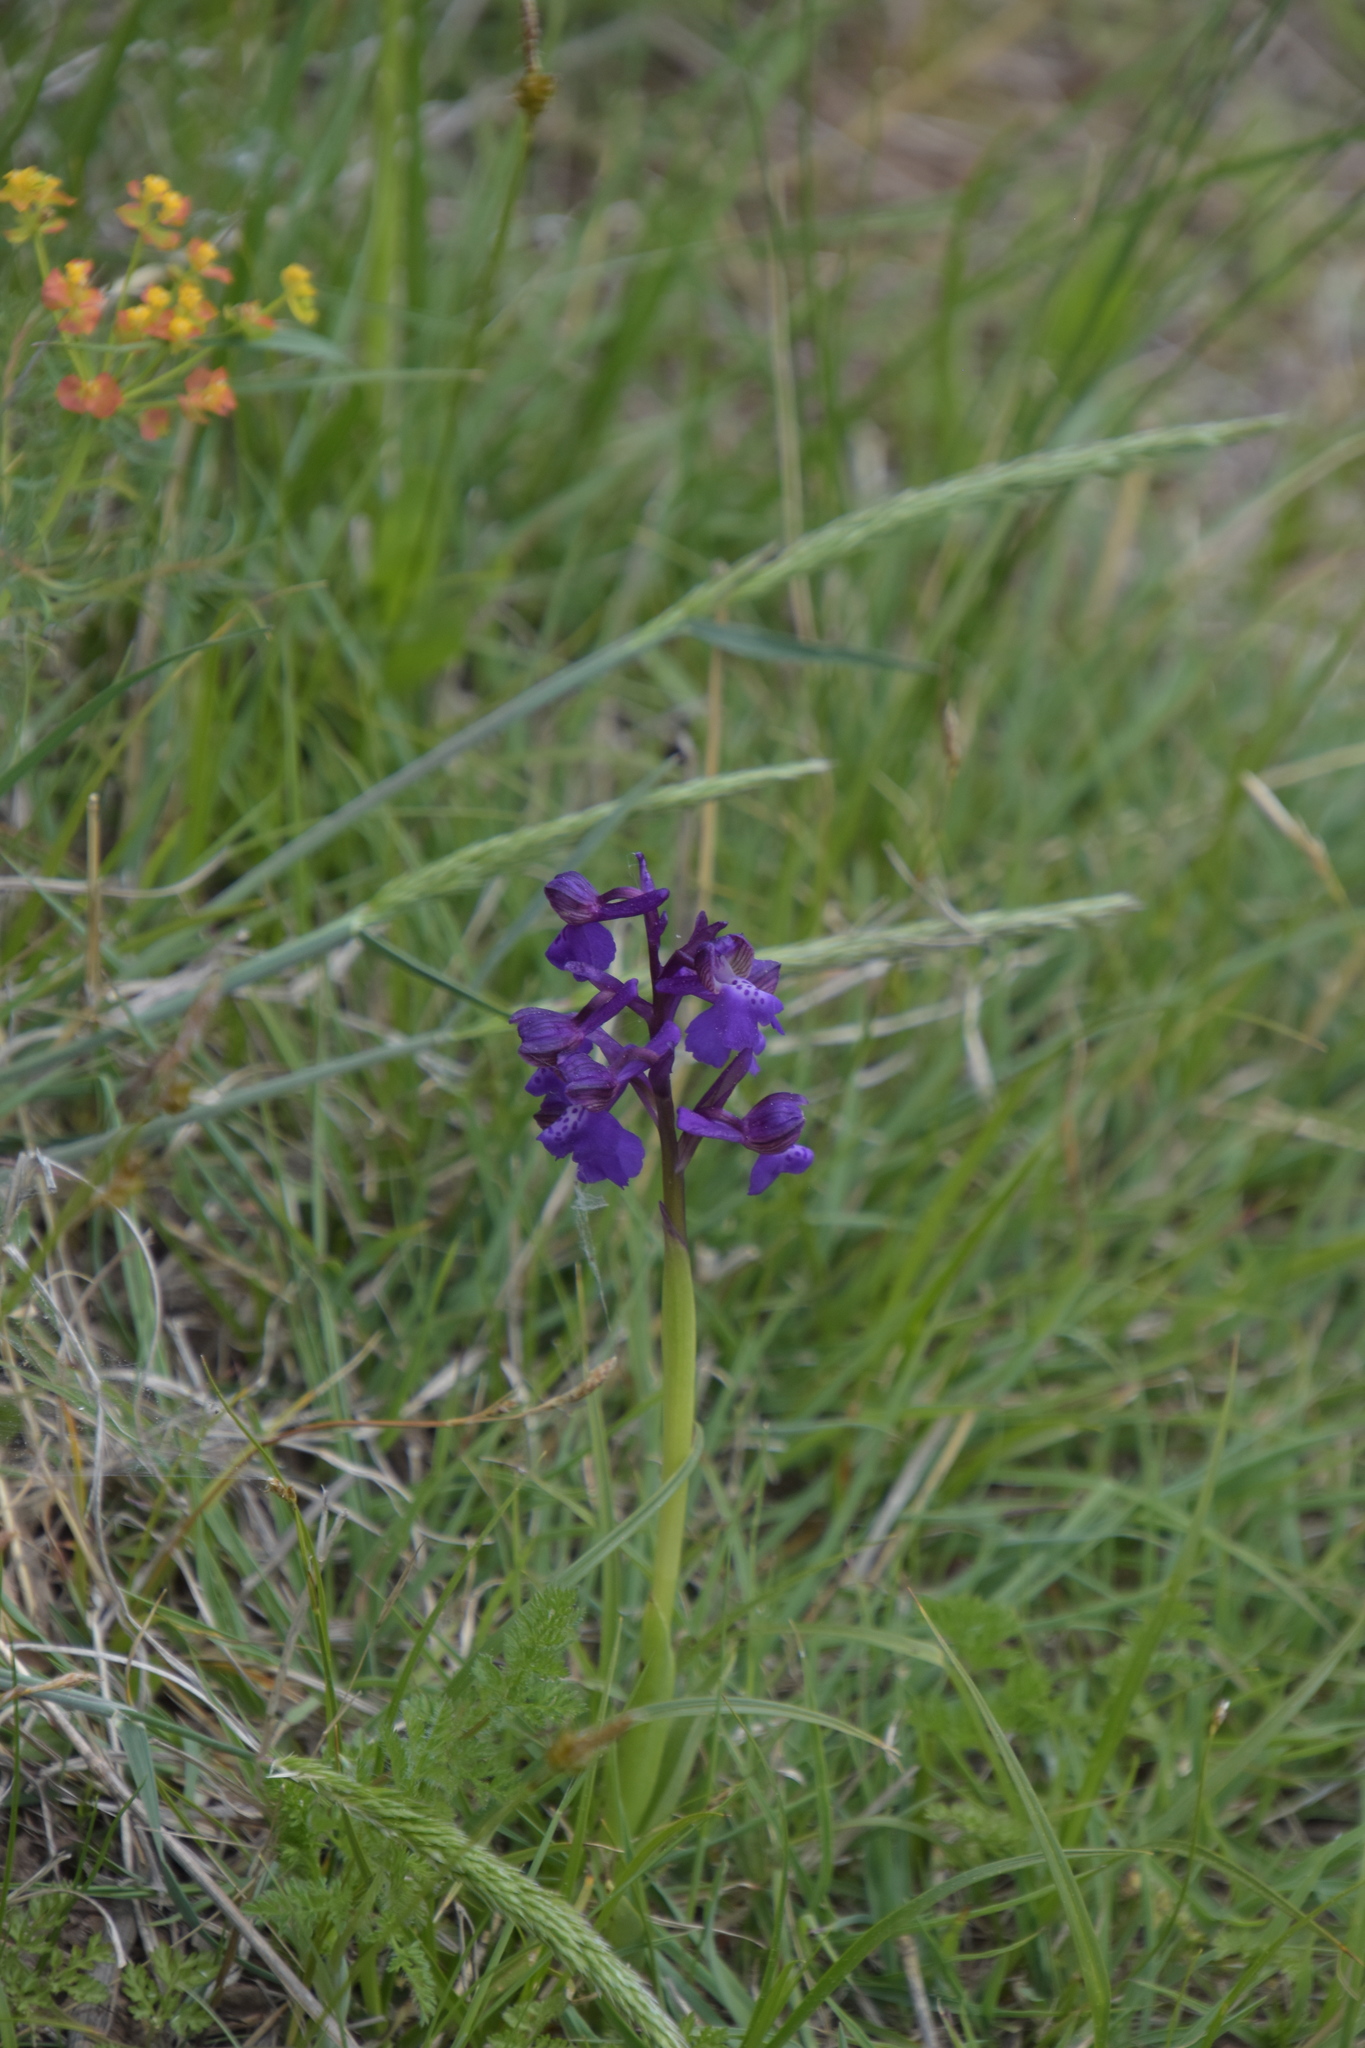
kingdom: Plantae
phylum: Tracheophyta
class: Liliopsida
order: Asparagales
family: Orchidaceae
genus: Anacamptis
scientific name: Anacamptis morio
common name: Green-winged orchid
